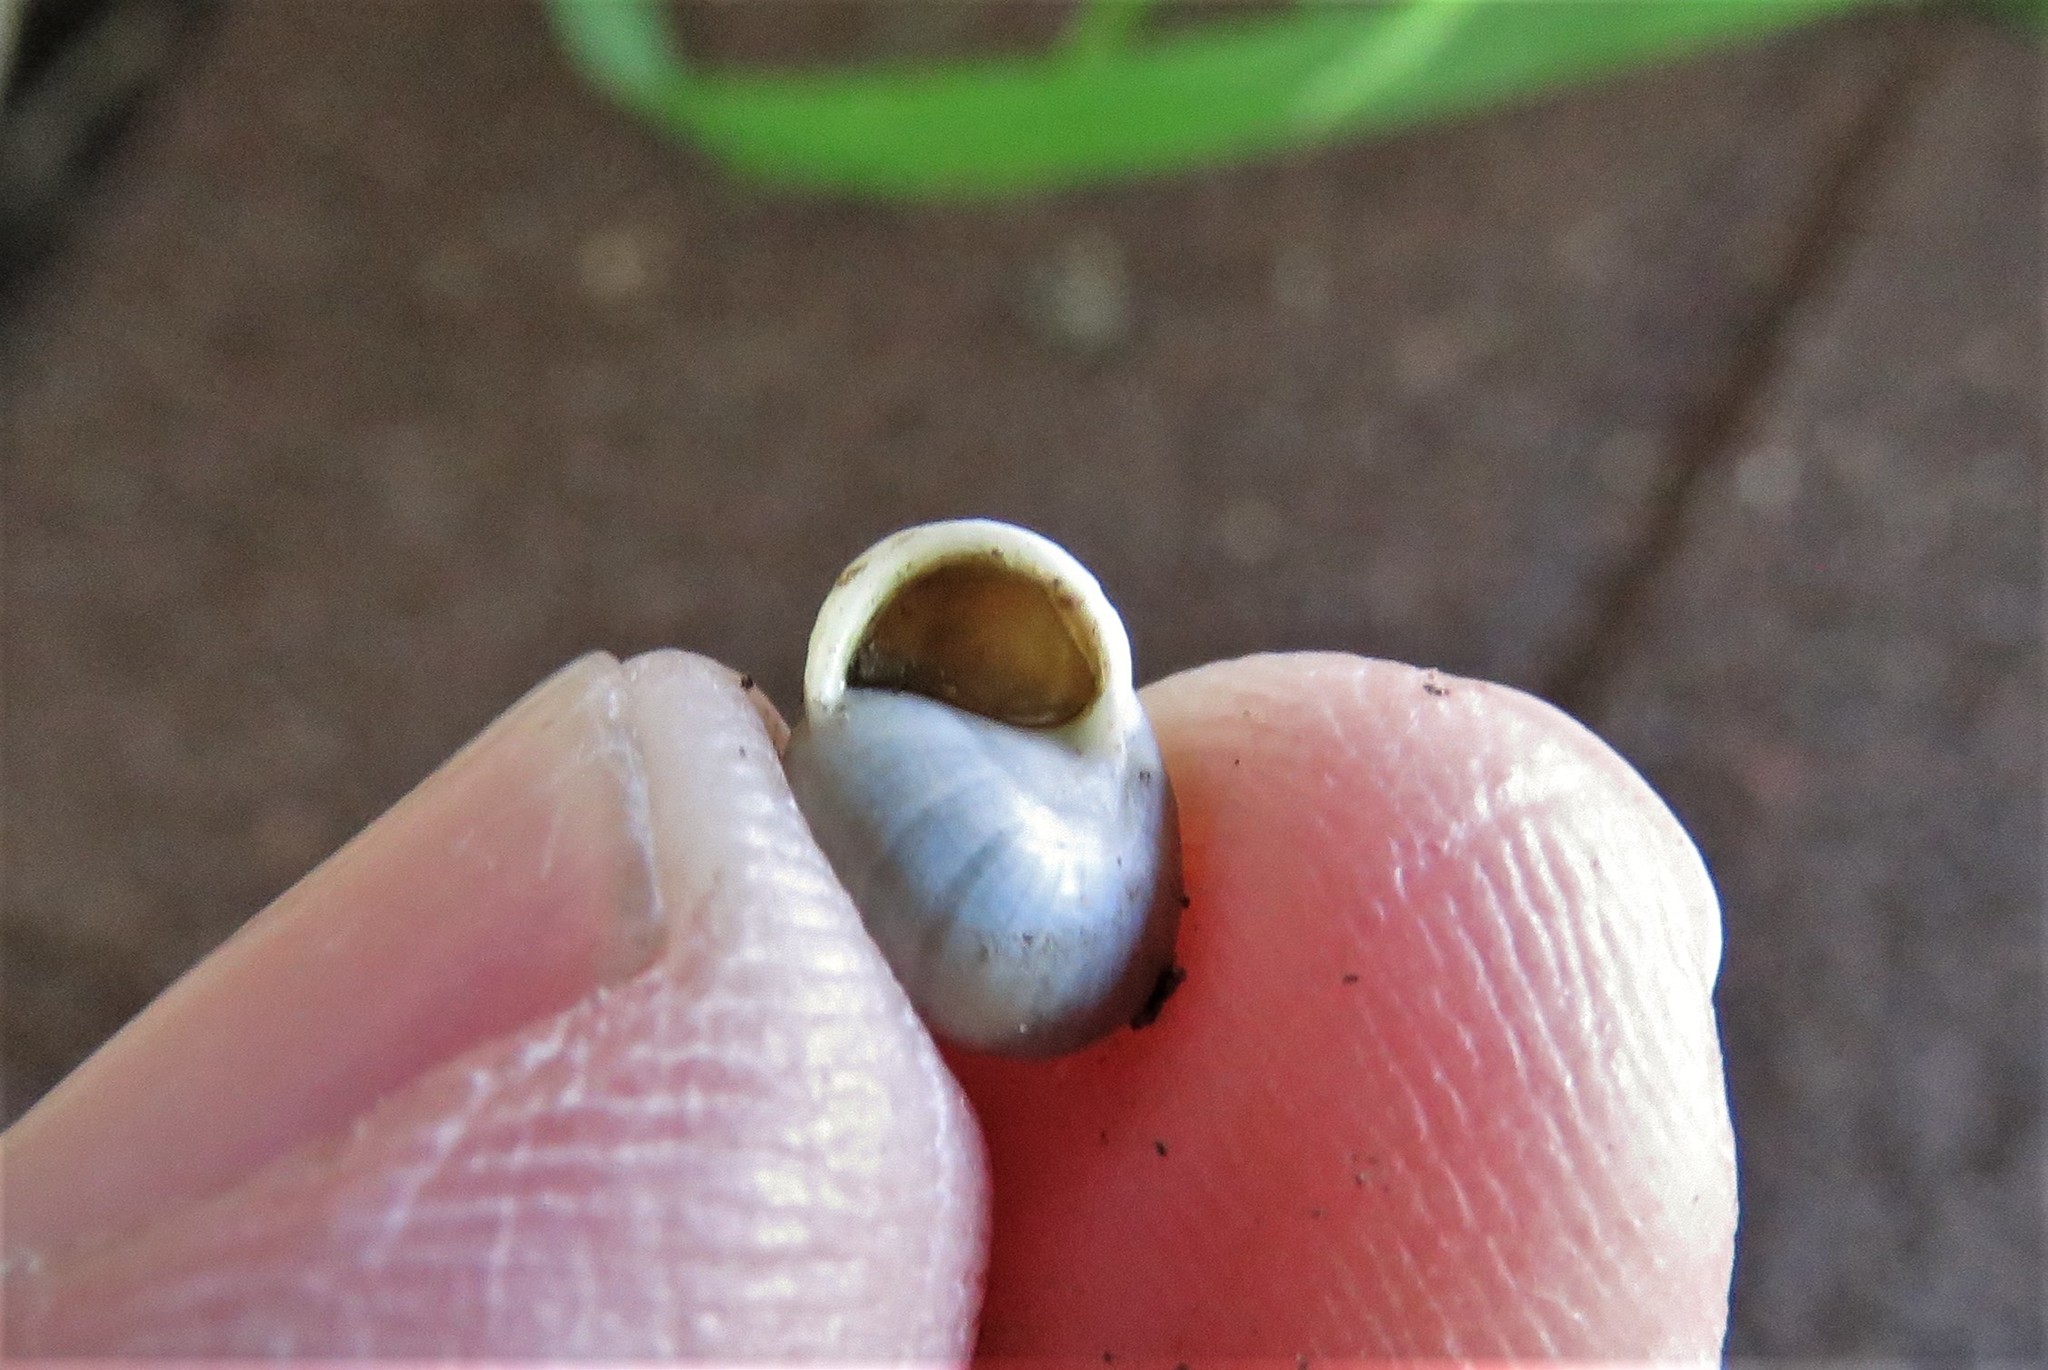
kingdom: Animalia
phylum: Mollusca
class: Gastropoda
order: Cycloneritida
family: Helicinidae
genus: Helicina
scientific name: Helicina orbiculata
